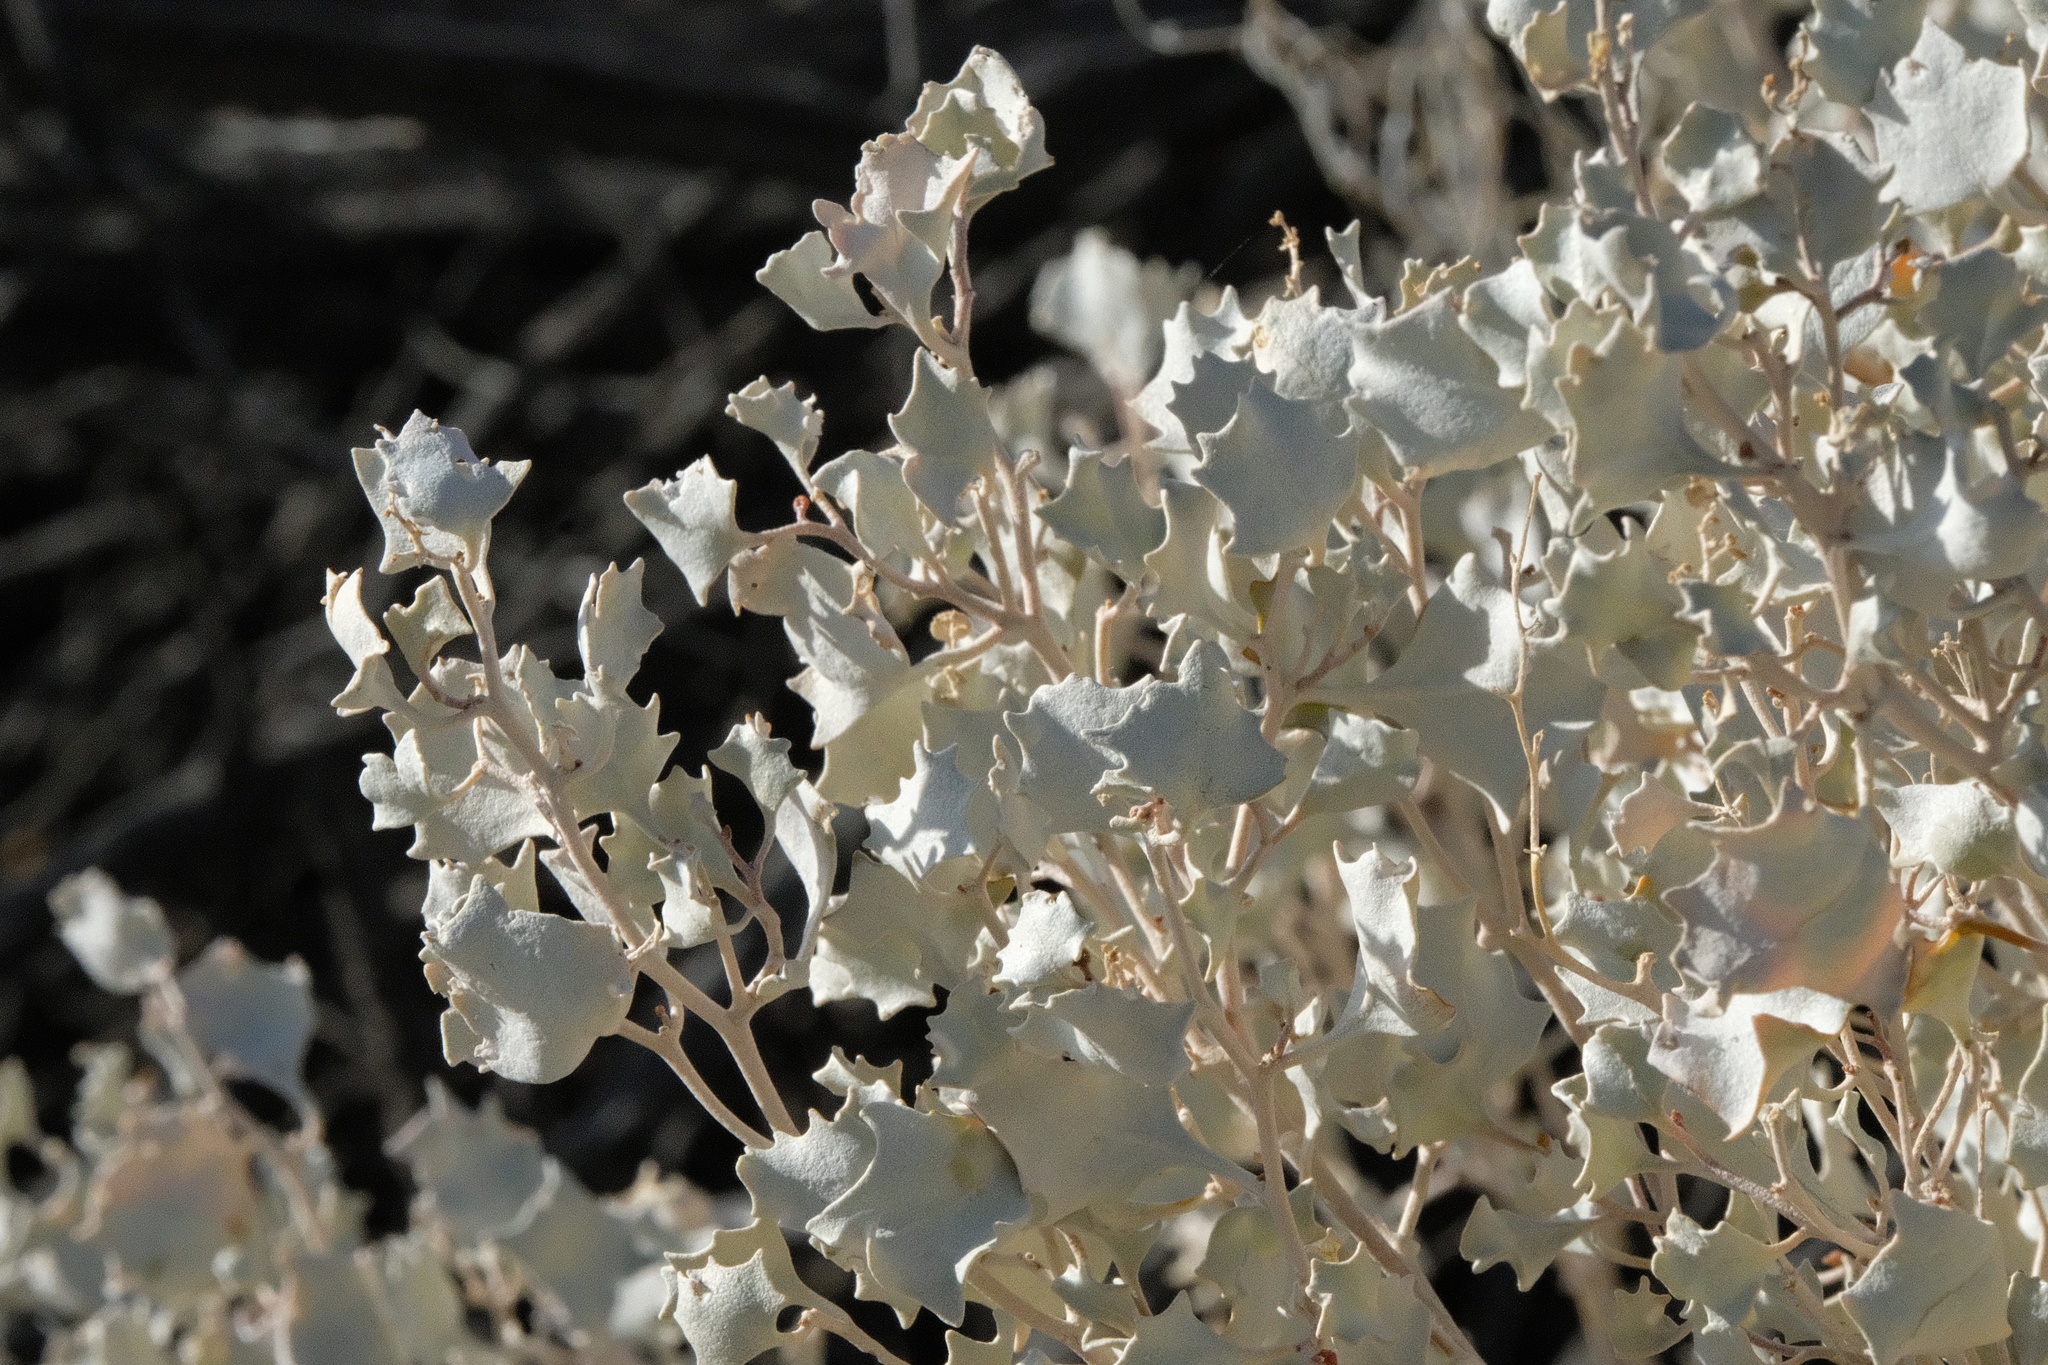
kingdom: Plantae
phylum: Tracheophyta
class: Magnoliopsida
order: Caryophyllales
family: Amaranthaceae
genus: Atriplex
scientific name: Atriplex hymenelytra
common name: Desert-holly
